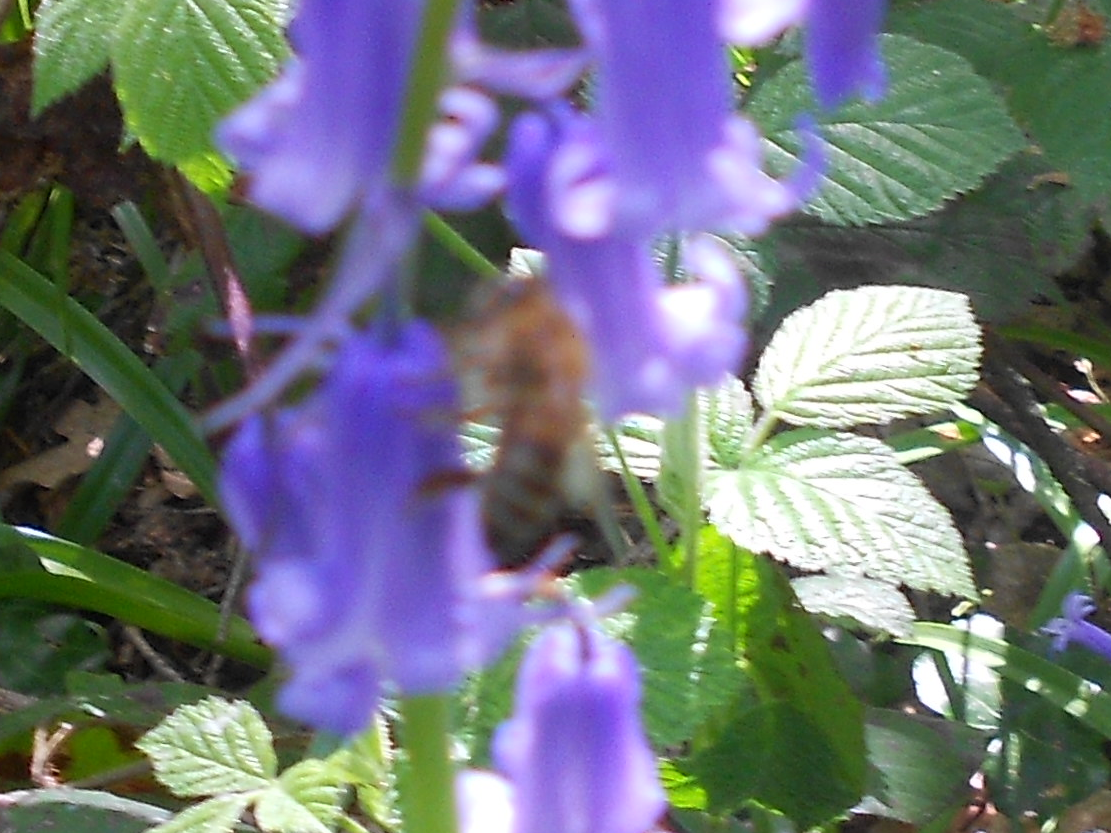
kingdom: Animalia
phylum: Arthropoda
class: Insecta
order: Hymenoptera
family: Apidae
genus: Apis
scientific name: Apis mellifera
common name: Honey bee
